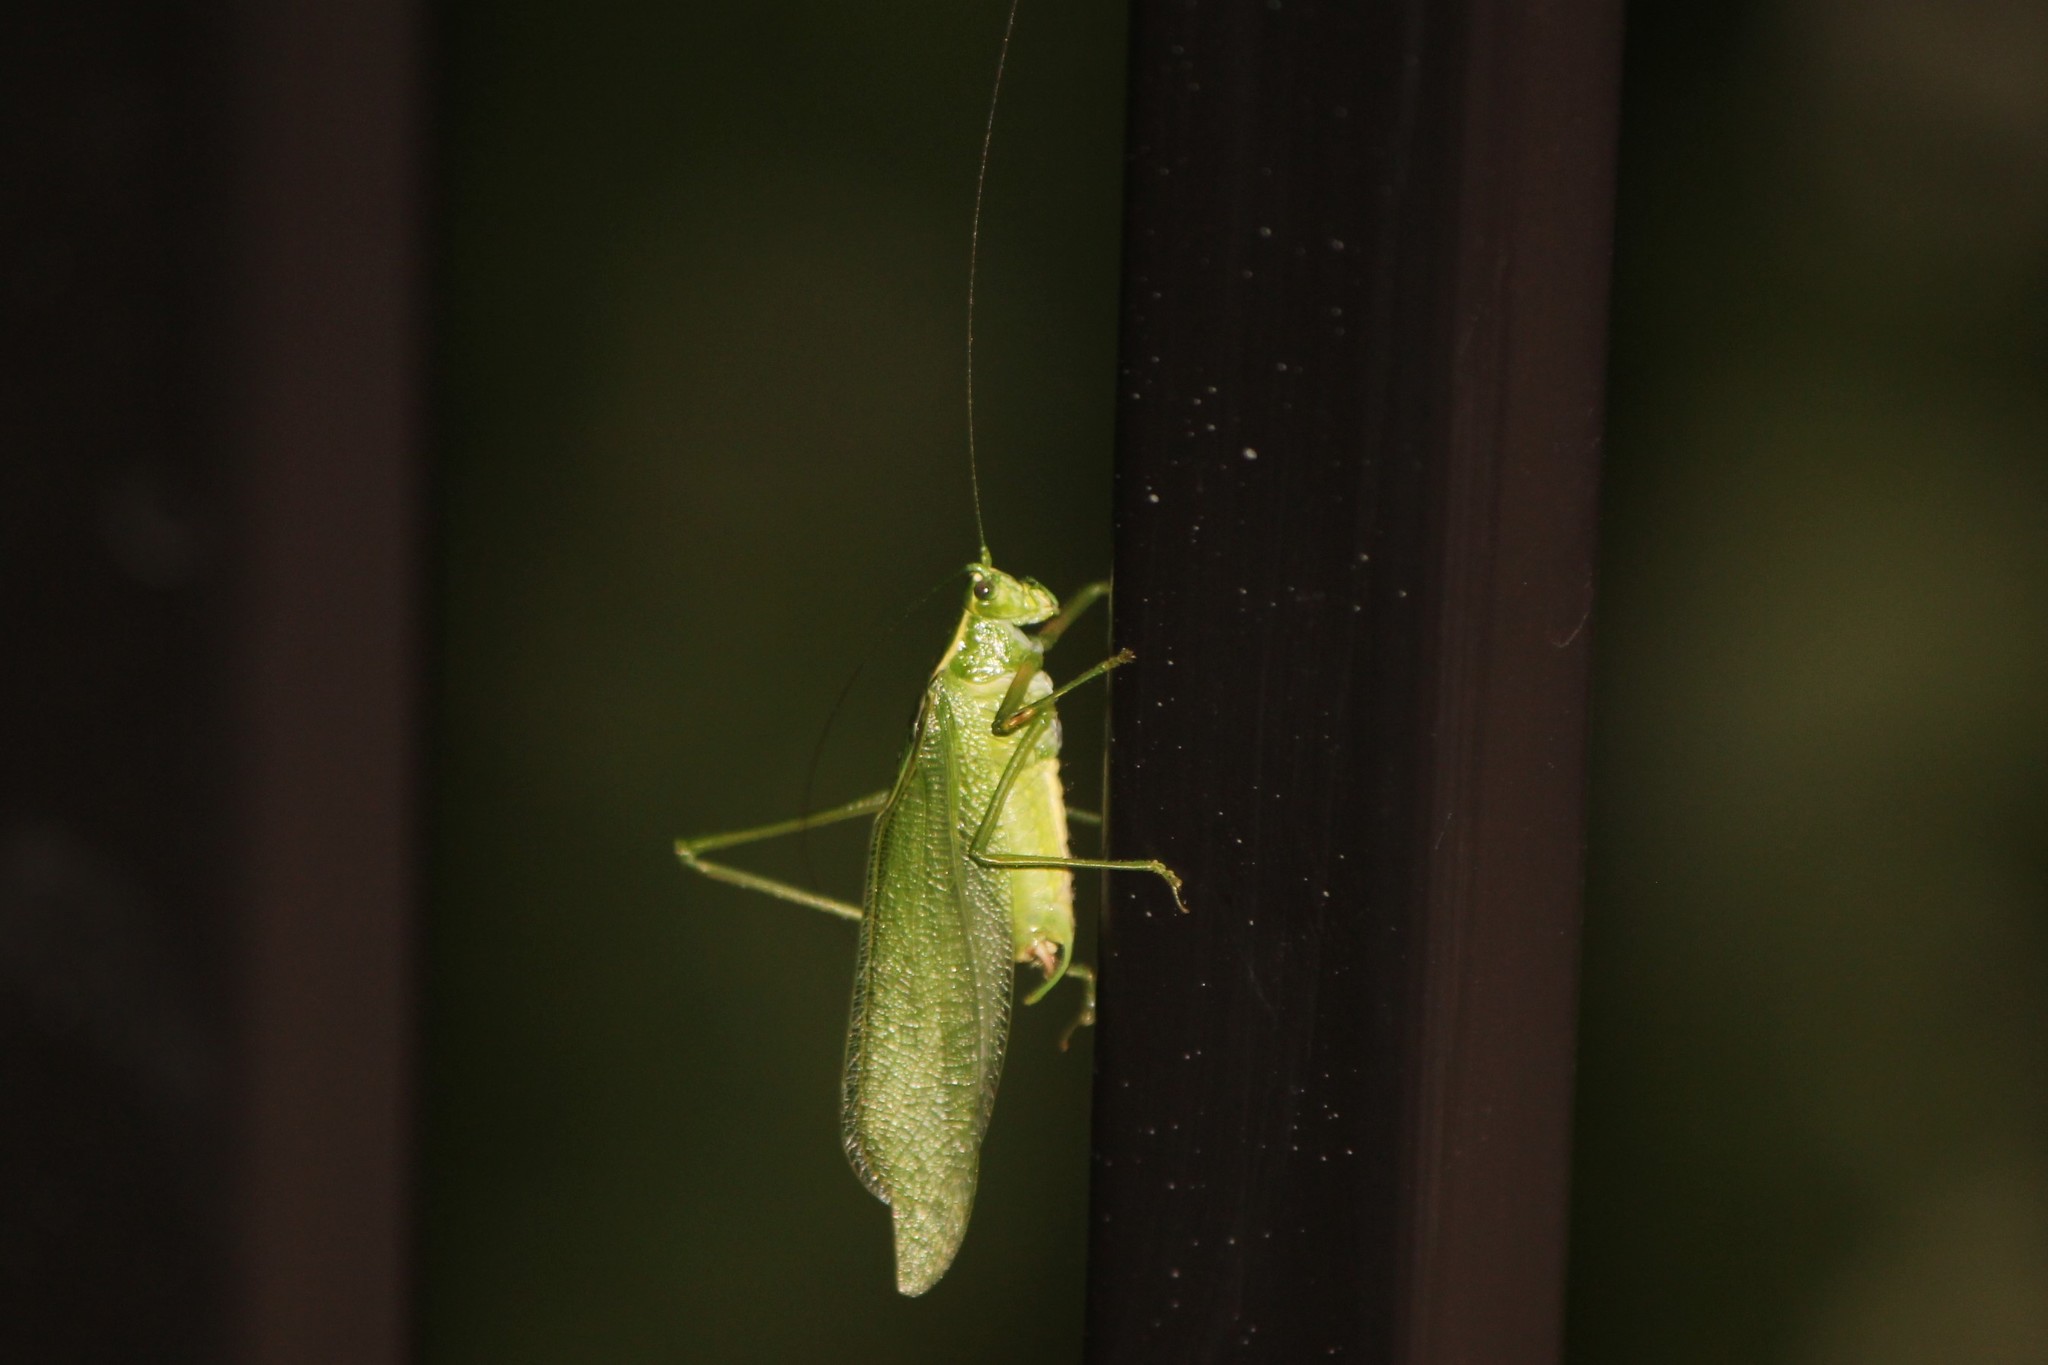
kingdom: Animalia
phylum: Arthropoda
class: Insecta
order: Orthoptera
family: Tettigoniidae
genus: Scudderia
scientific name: Scudderia septentrionalis
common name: Northern bush-katydid
